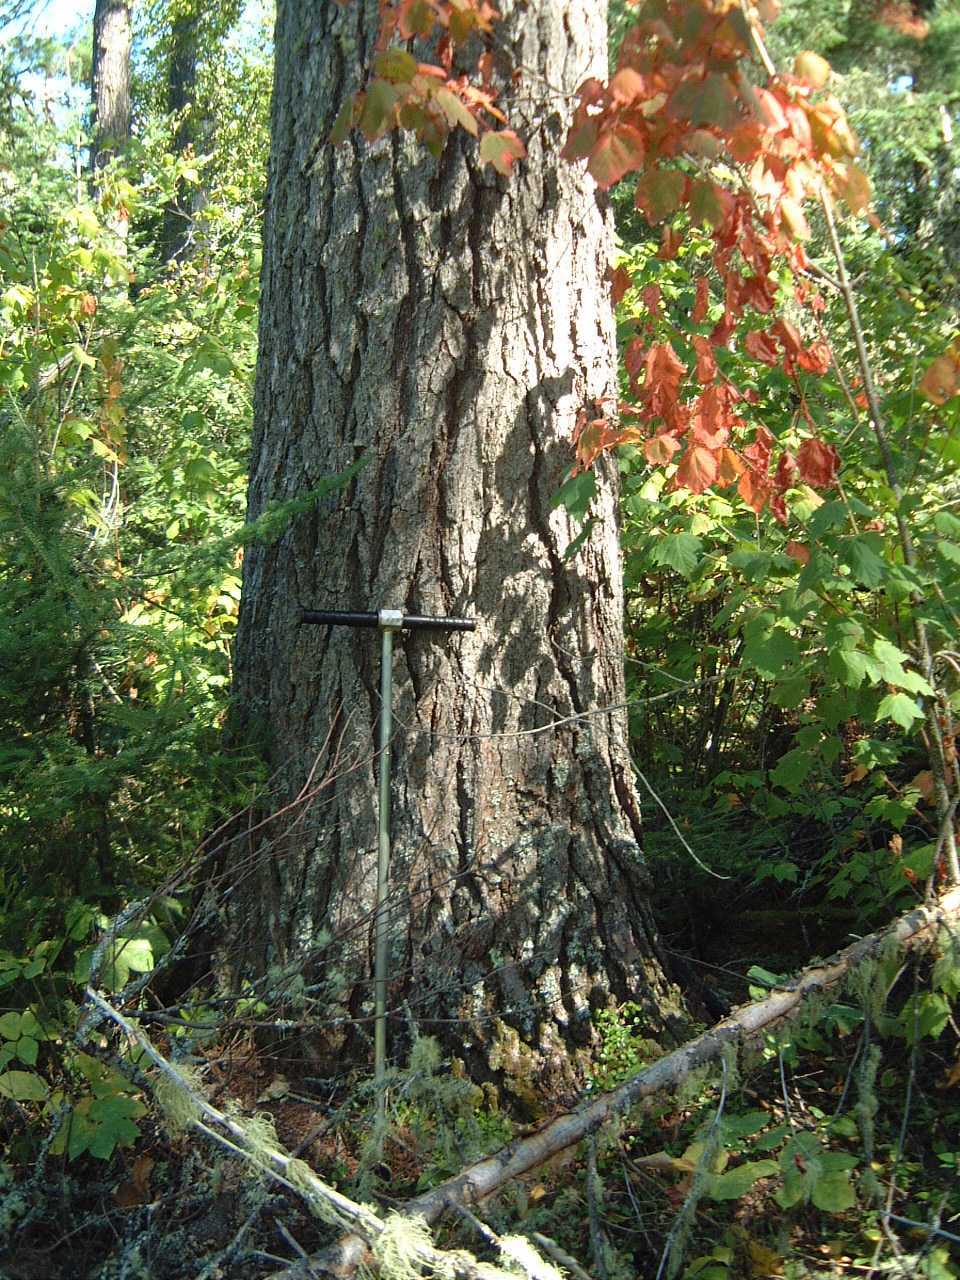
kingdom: Plantae
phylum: Tracheophyta
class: Pinopsida
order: Pinales
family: Pinaceae
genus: Pinus
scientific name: Pinus strobus
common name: Weymouth pine
